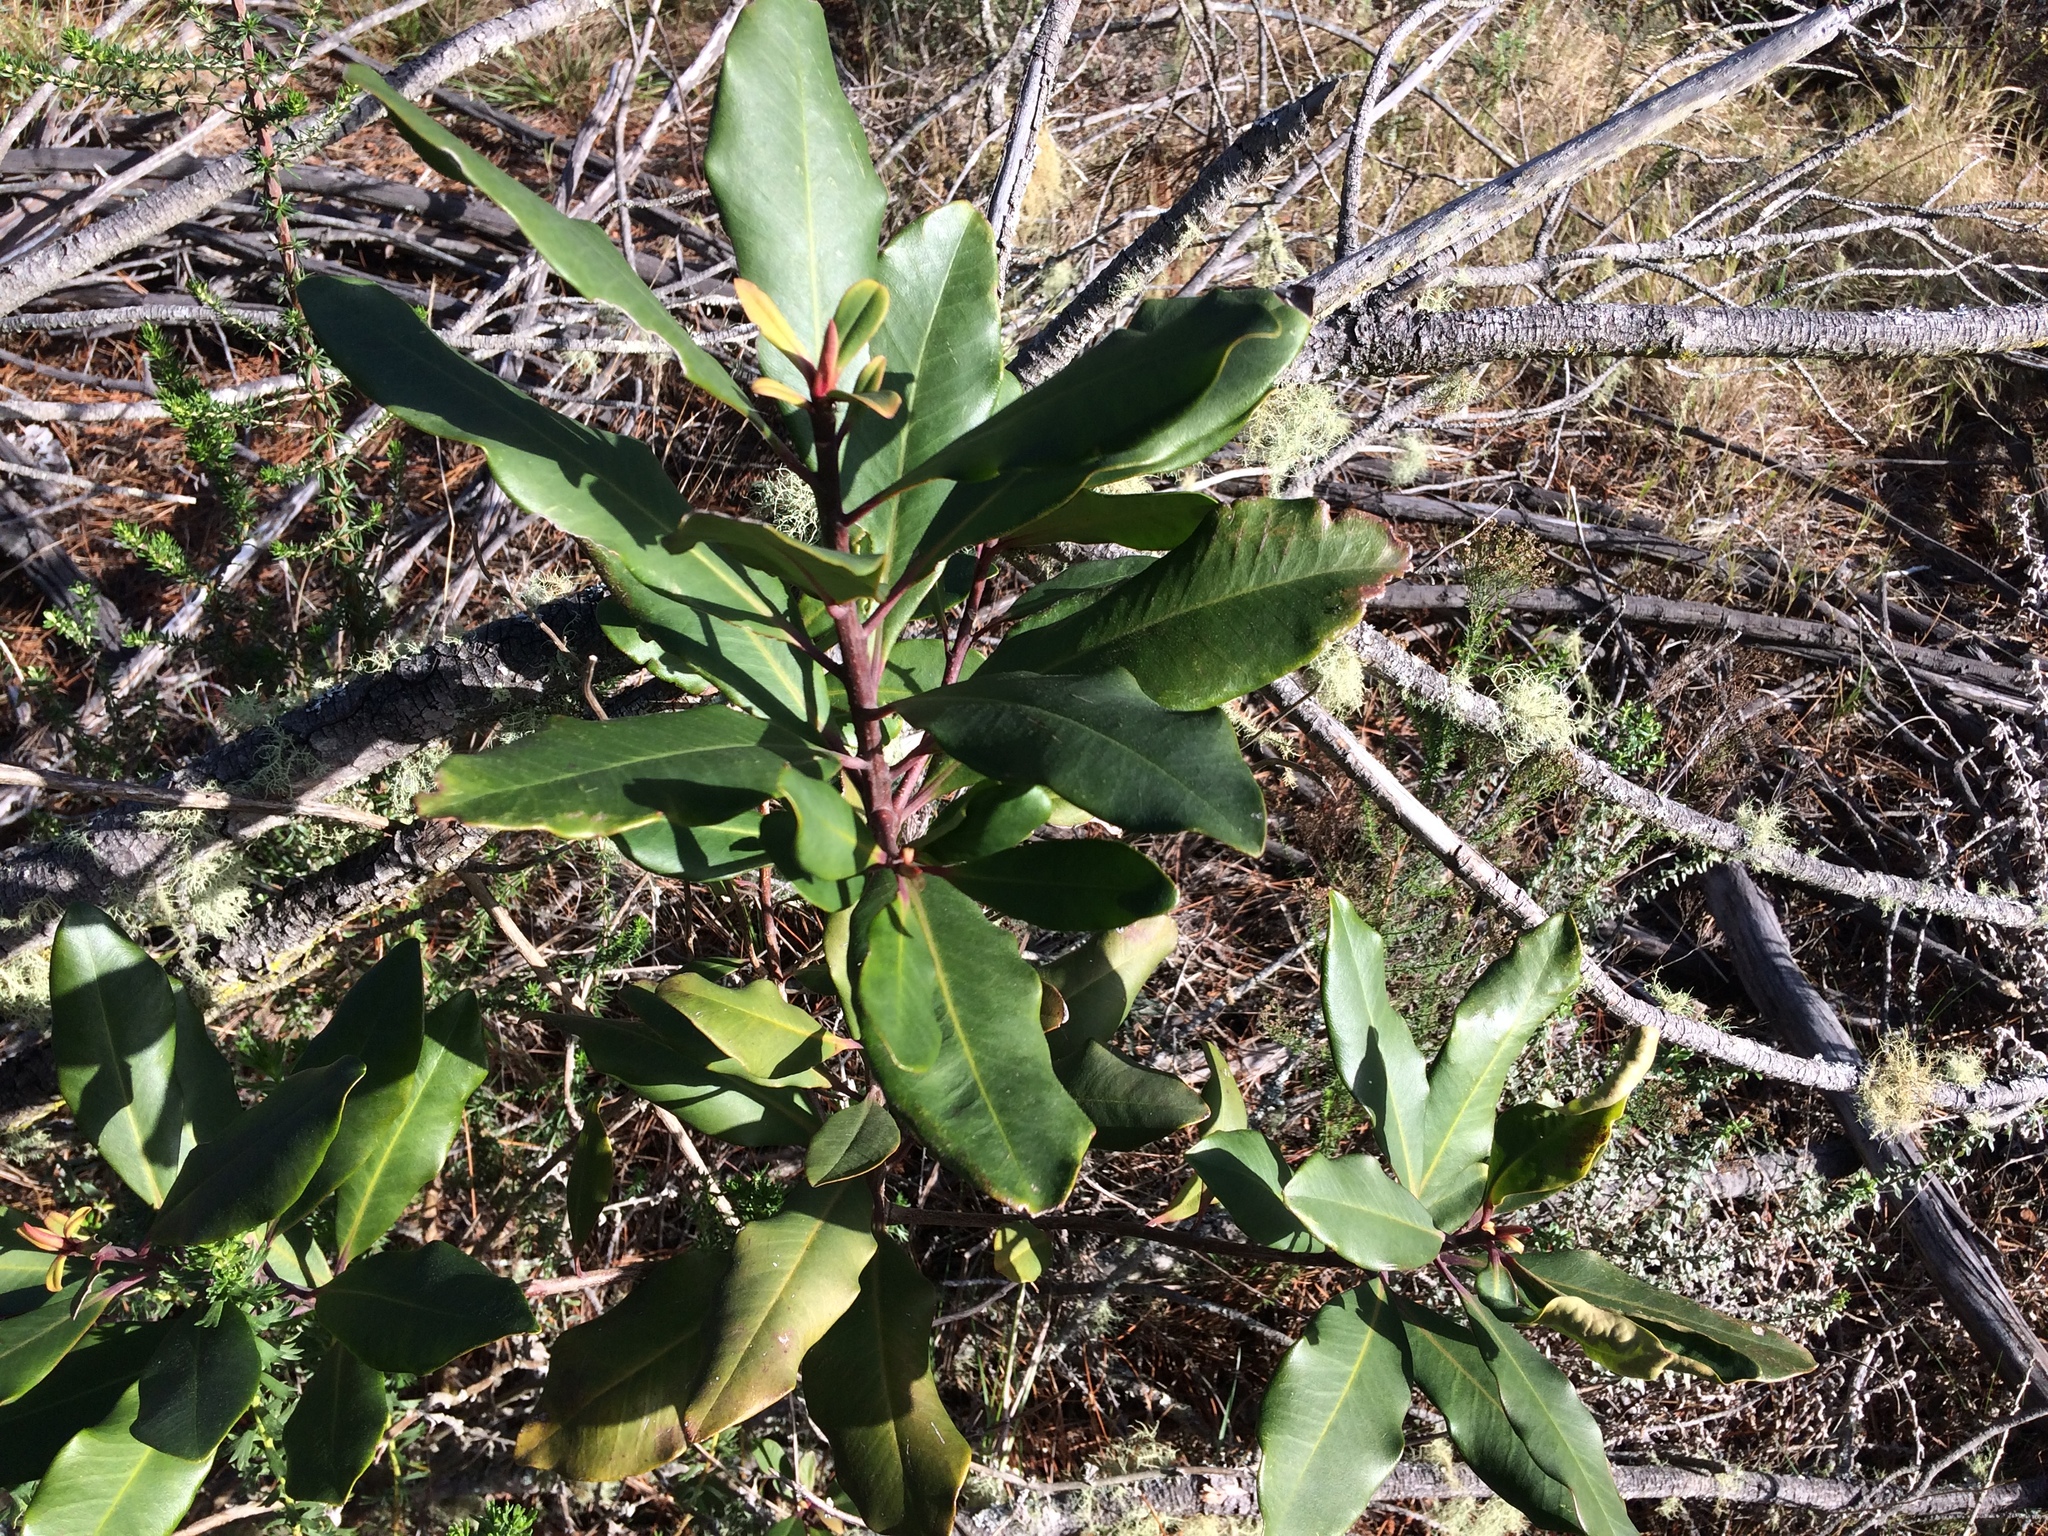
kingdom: Plantae
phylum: Tracheophyta
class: Magnoliopsida
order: Ericales
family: Primulaceae
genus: Myrsine
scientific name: Myrsine melanophloeos
